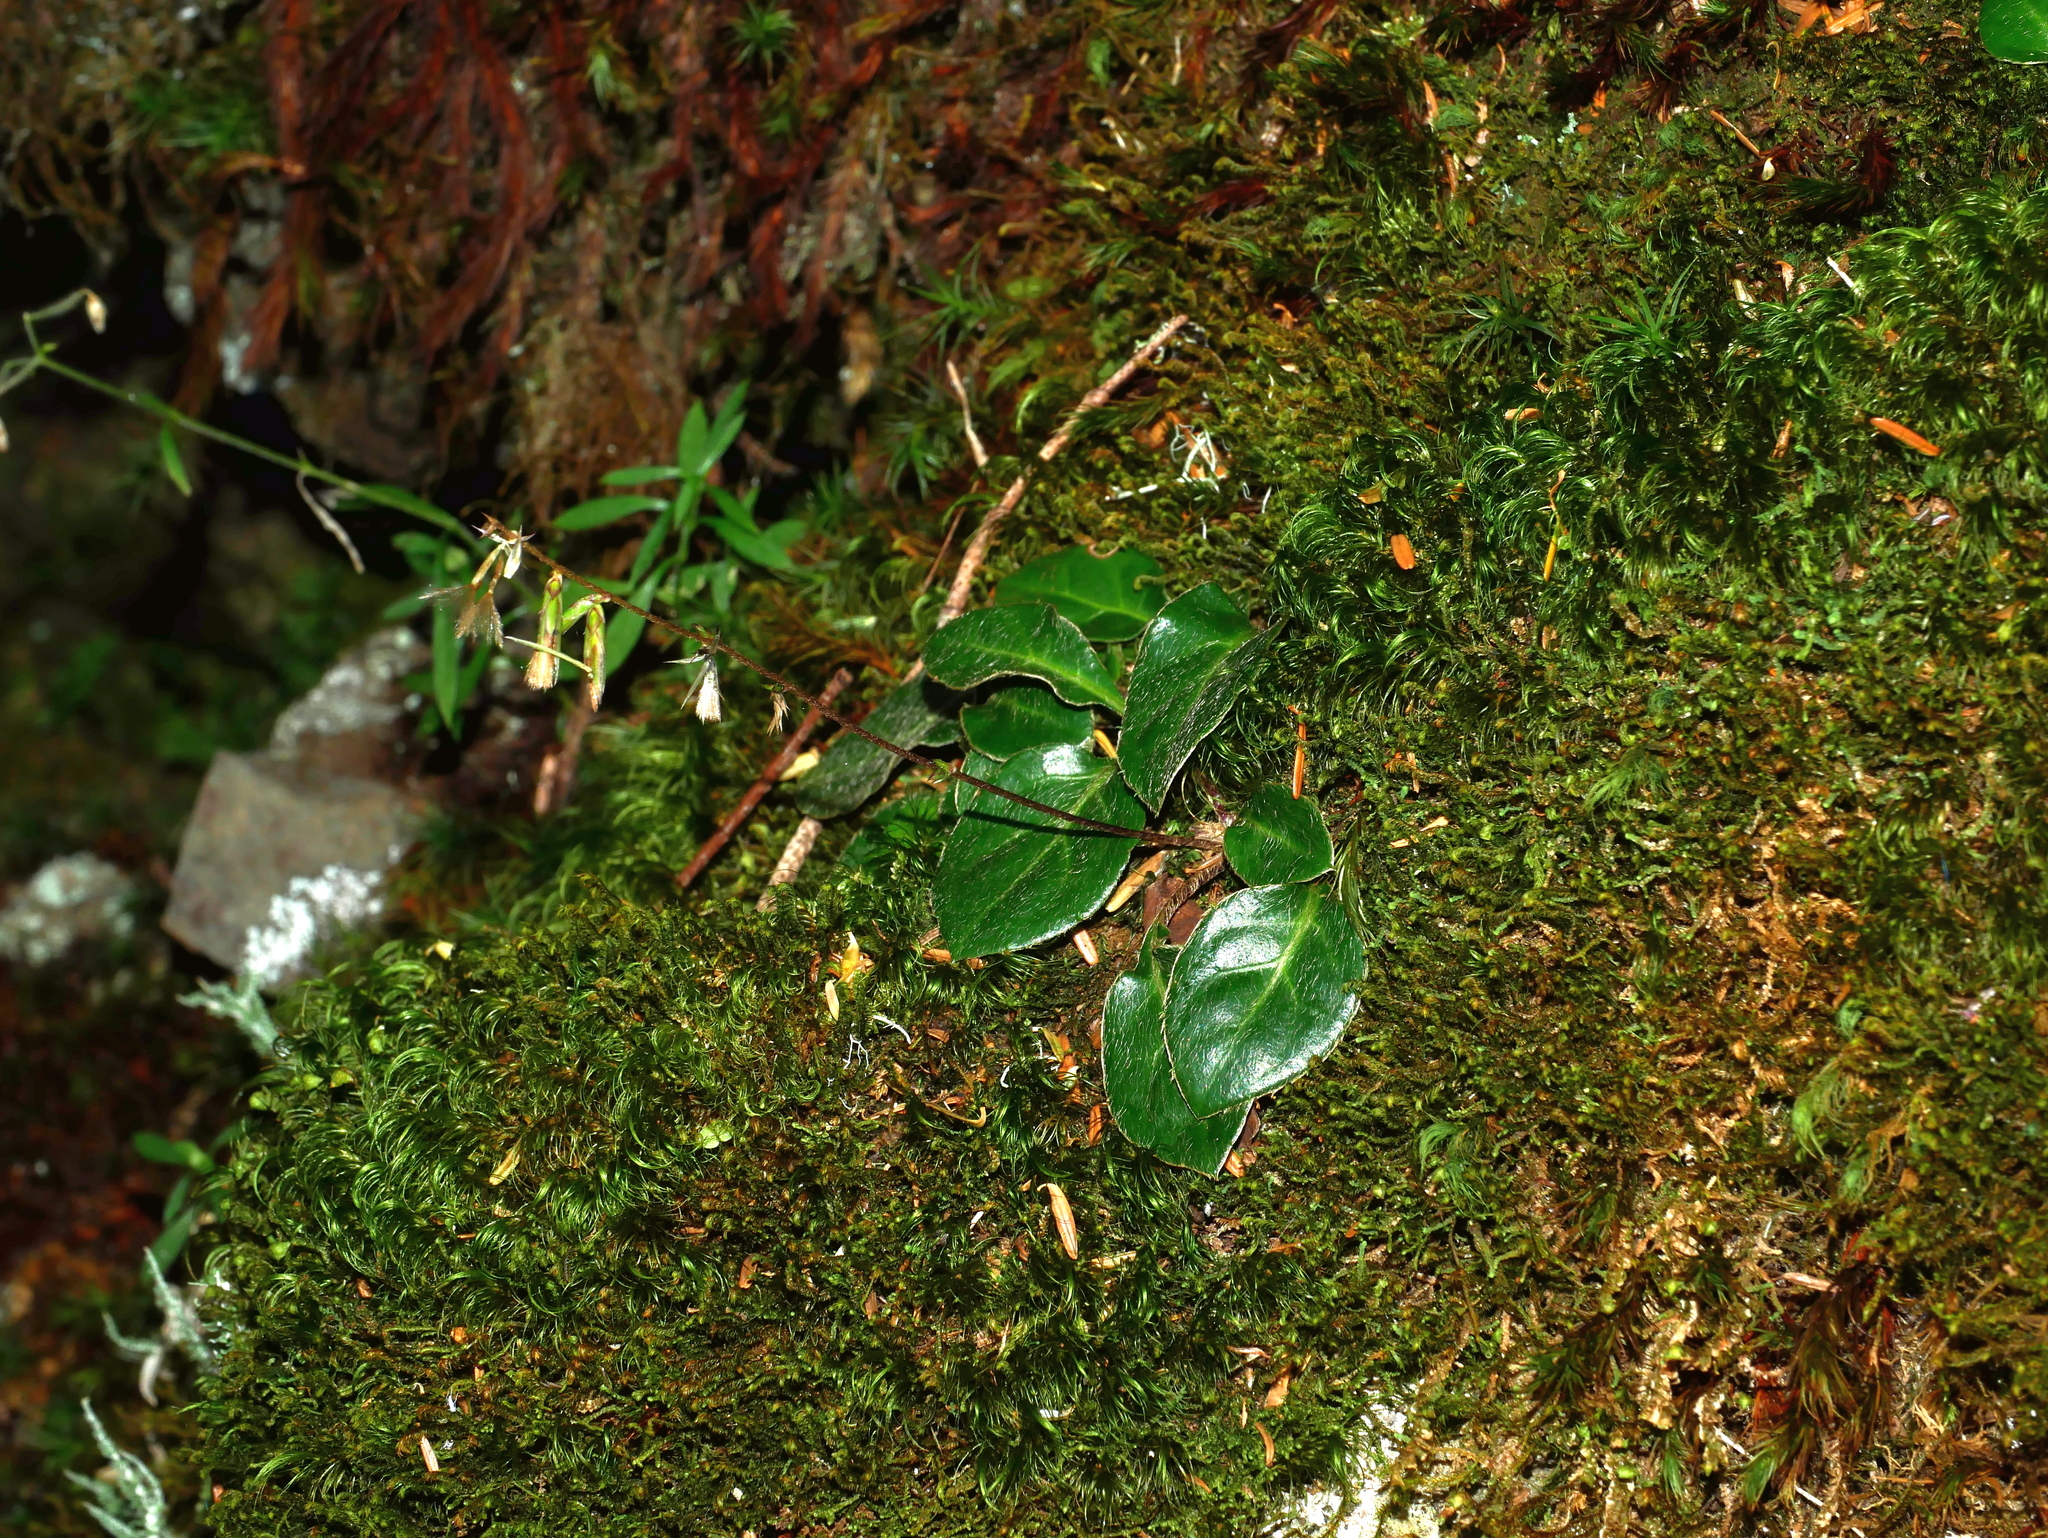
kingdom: Plantae
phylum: Tracheophyta
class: Magnoliopsida
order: Asterales
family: Asteraceae
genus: Ainsliaea
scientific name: Ainsliaea henryi
